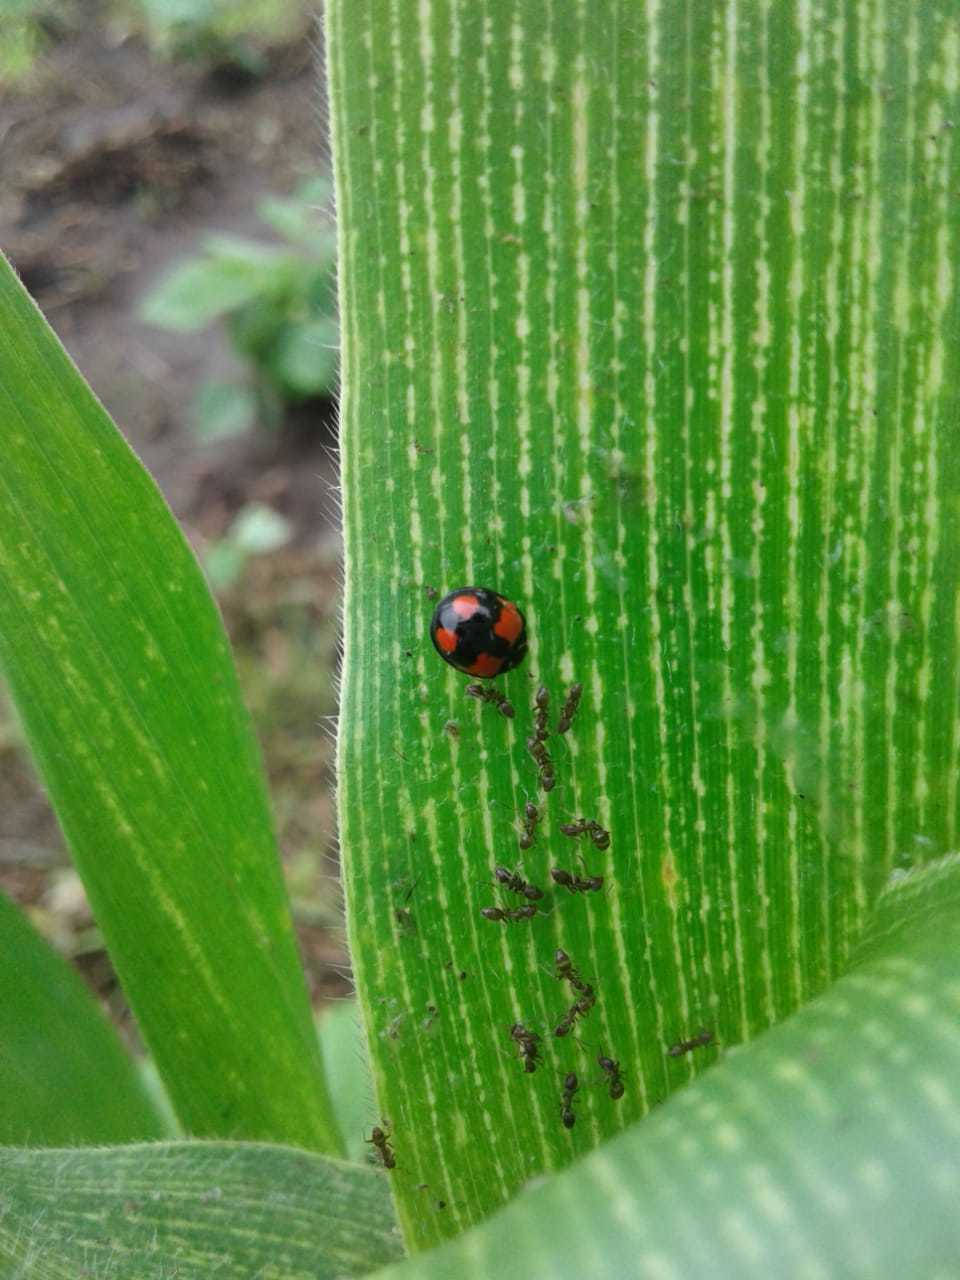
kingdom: Animalia
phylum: Arthropoda
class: Insecta
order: Coleoptera
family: Coccinellidae
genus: Cheilomenes
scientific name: Cheilomenes sexmaculata
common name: Ladybird beetle
